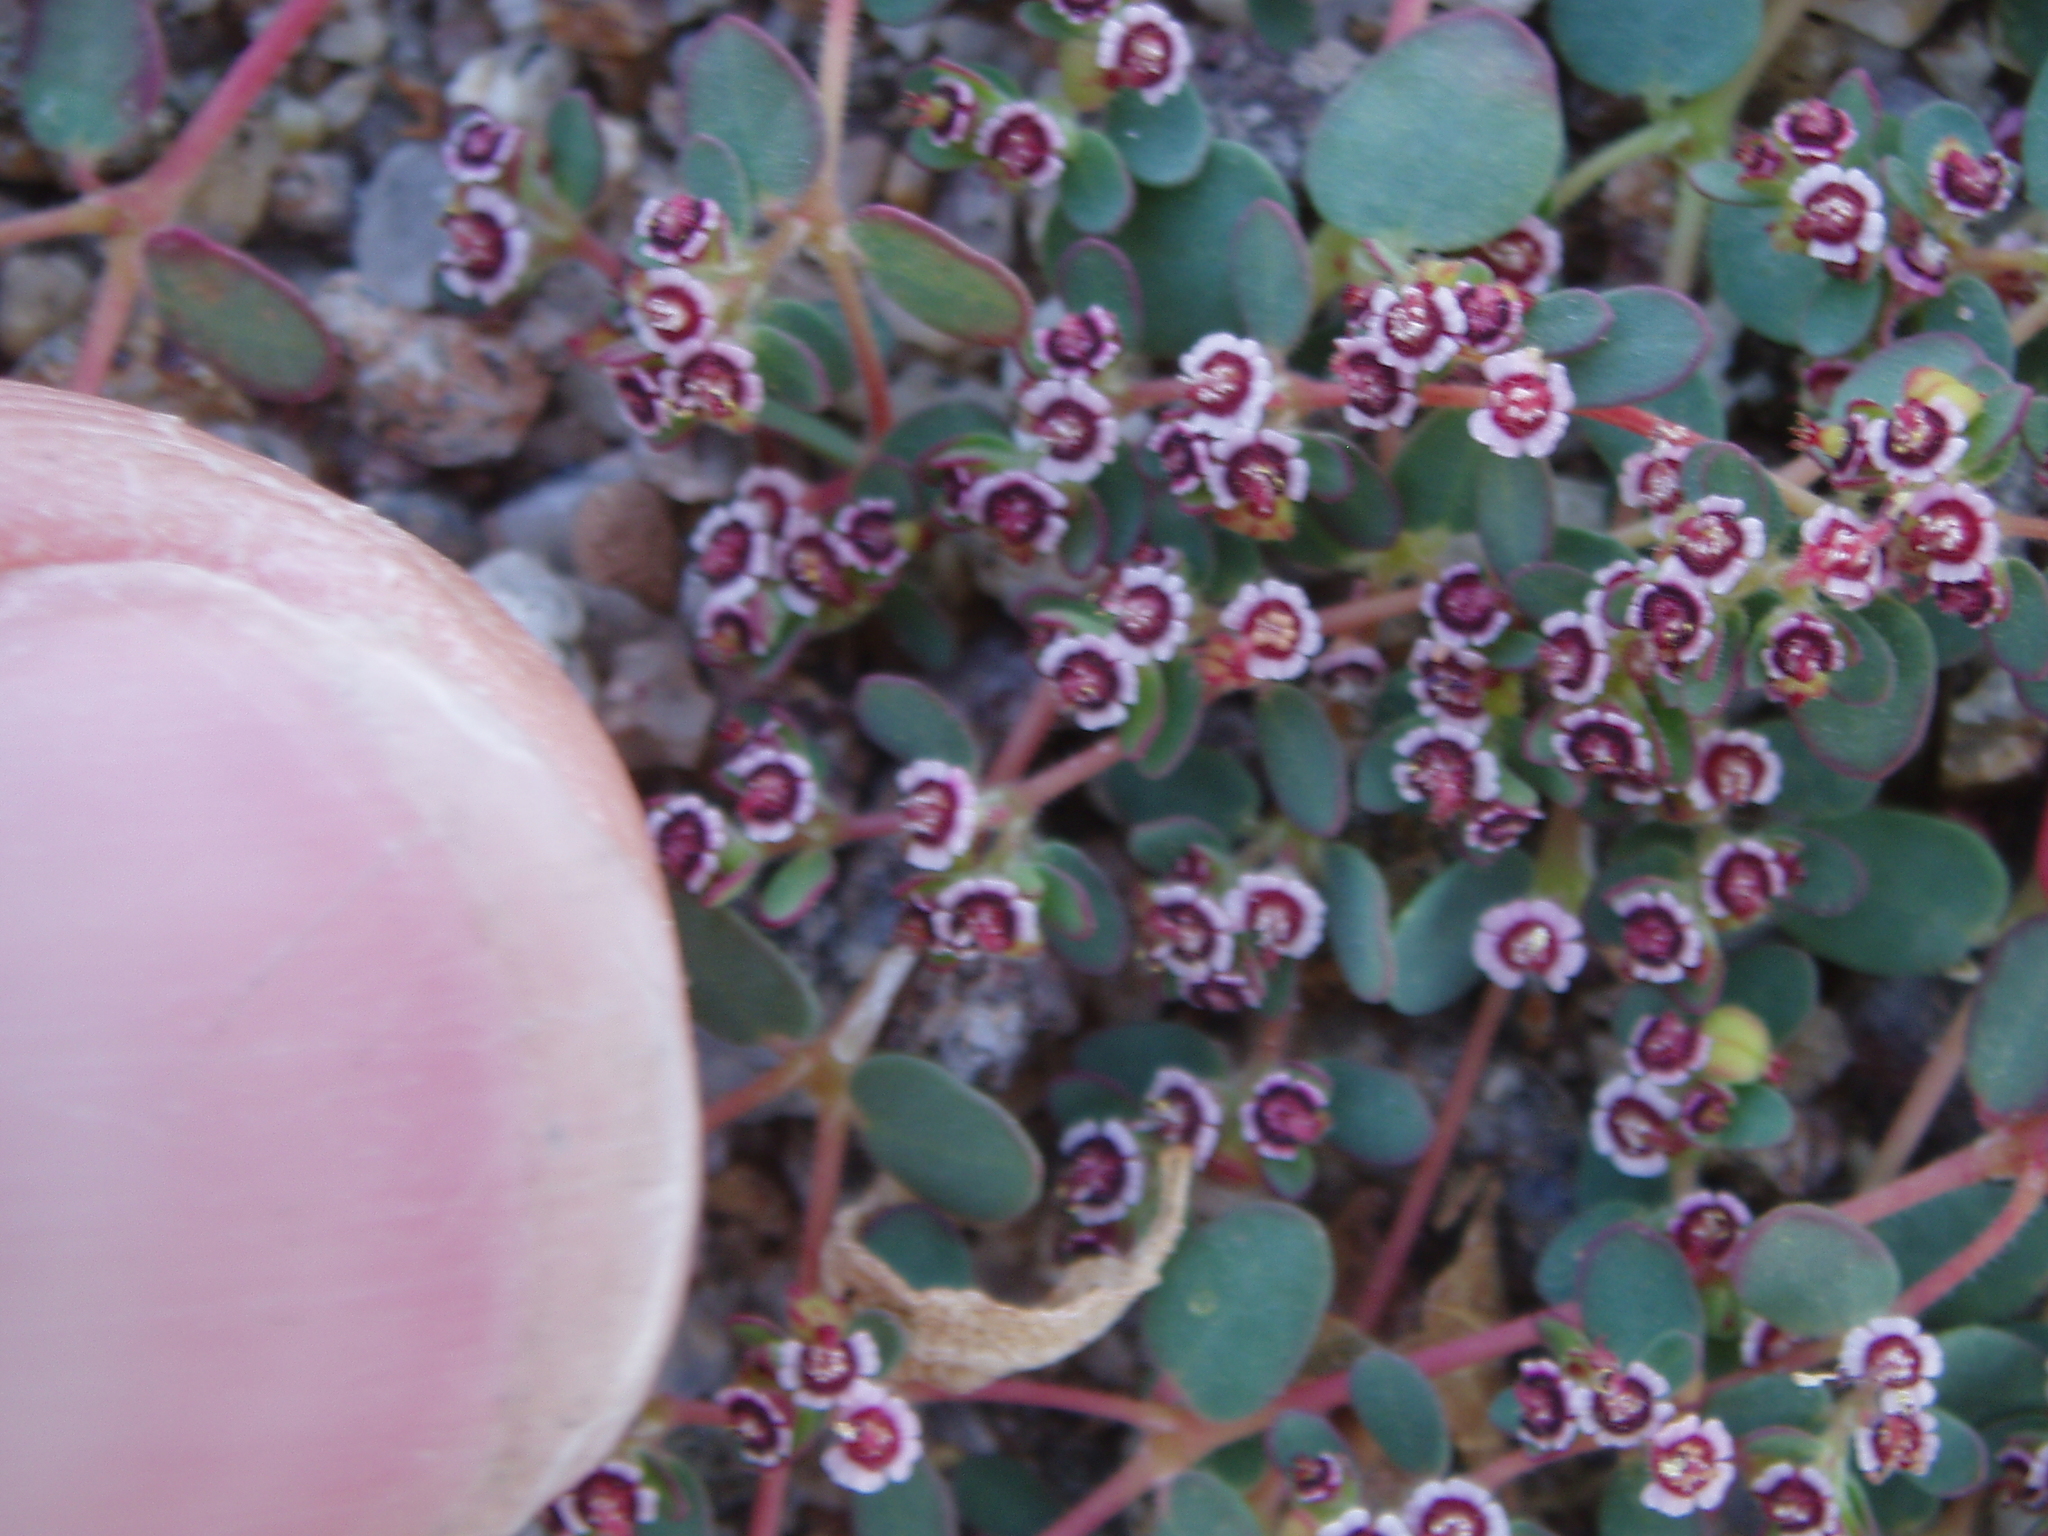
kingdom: Plantae
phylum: Tracheophyta
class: Magnoliopsida
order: Malpighiales
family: Euphorbiaceae
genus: Euphorbia
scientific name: Euphorbia polycarpa
